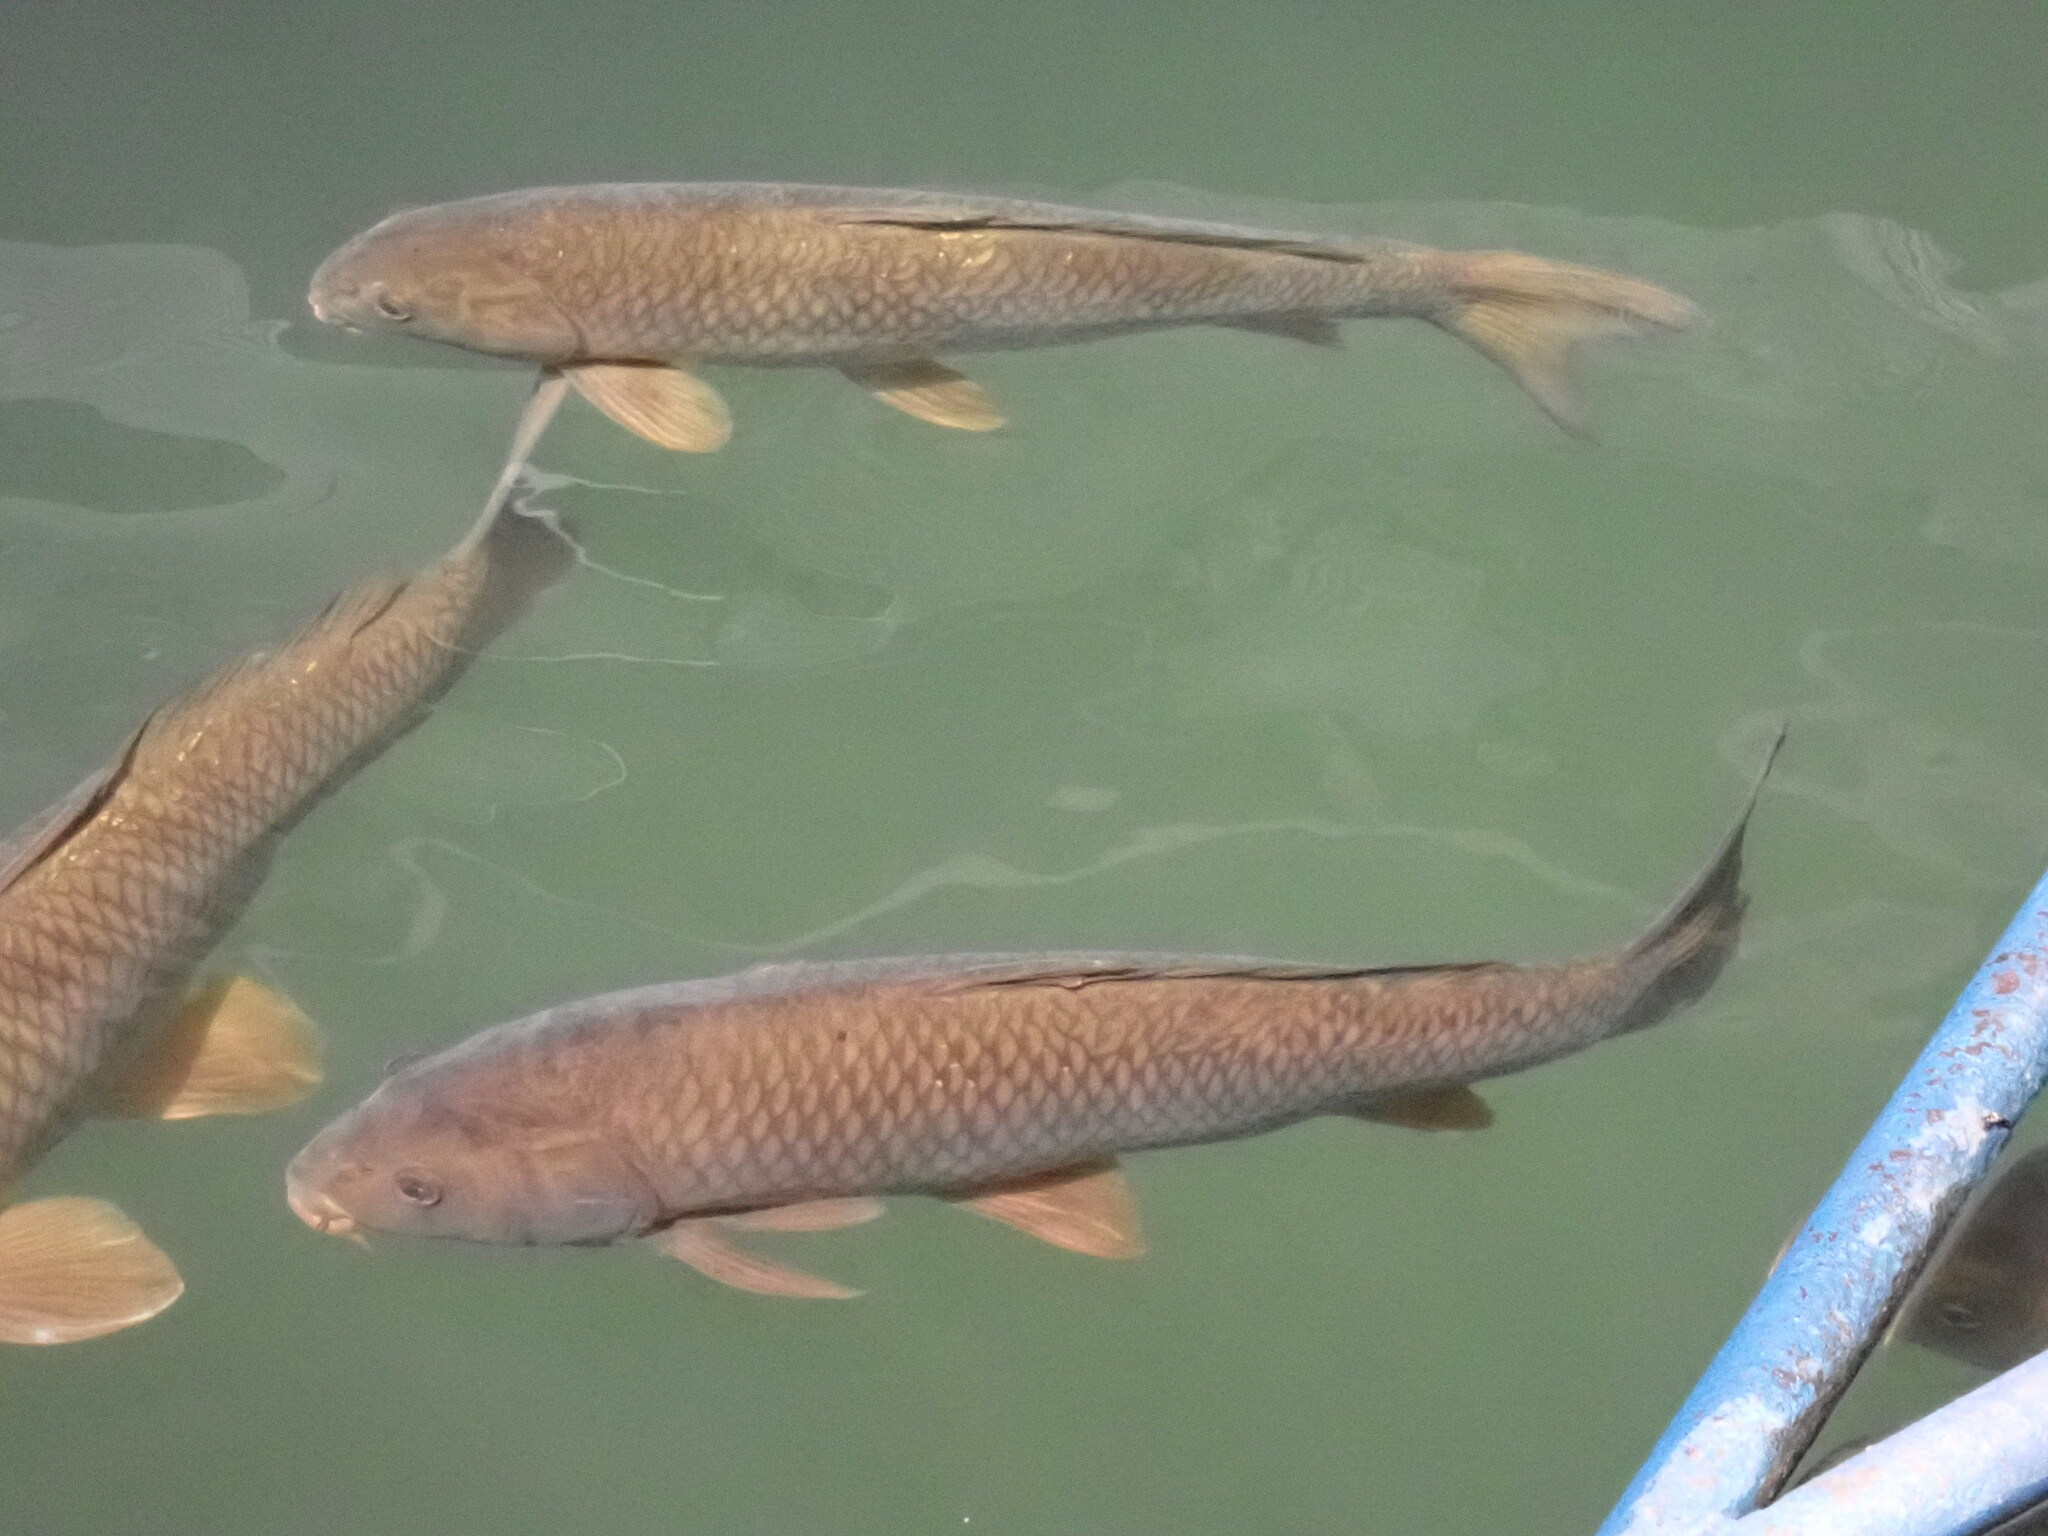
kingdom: Animalia
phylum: Chordata
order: Cypriniformes
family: Cyprinidae
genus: Cyprinus
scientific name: Cyprinus carpio
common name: Common carp
